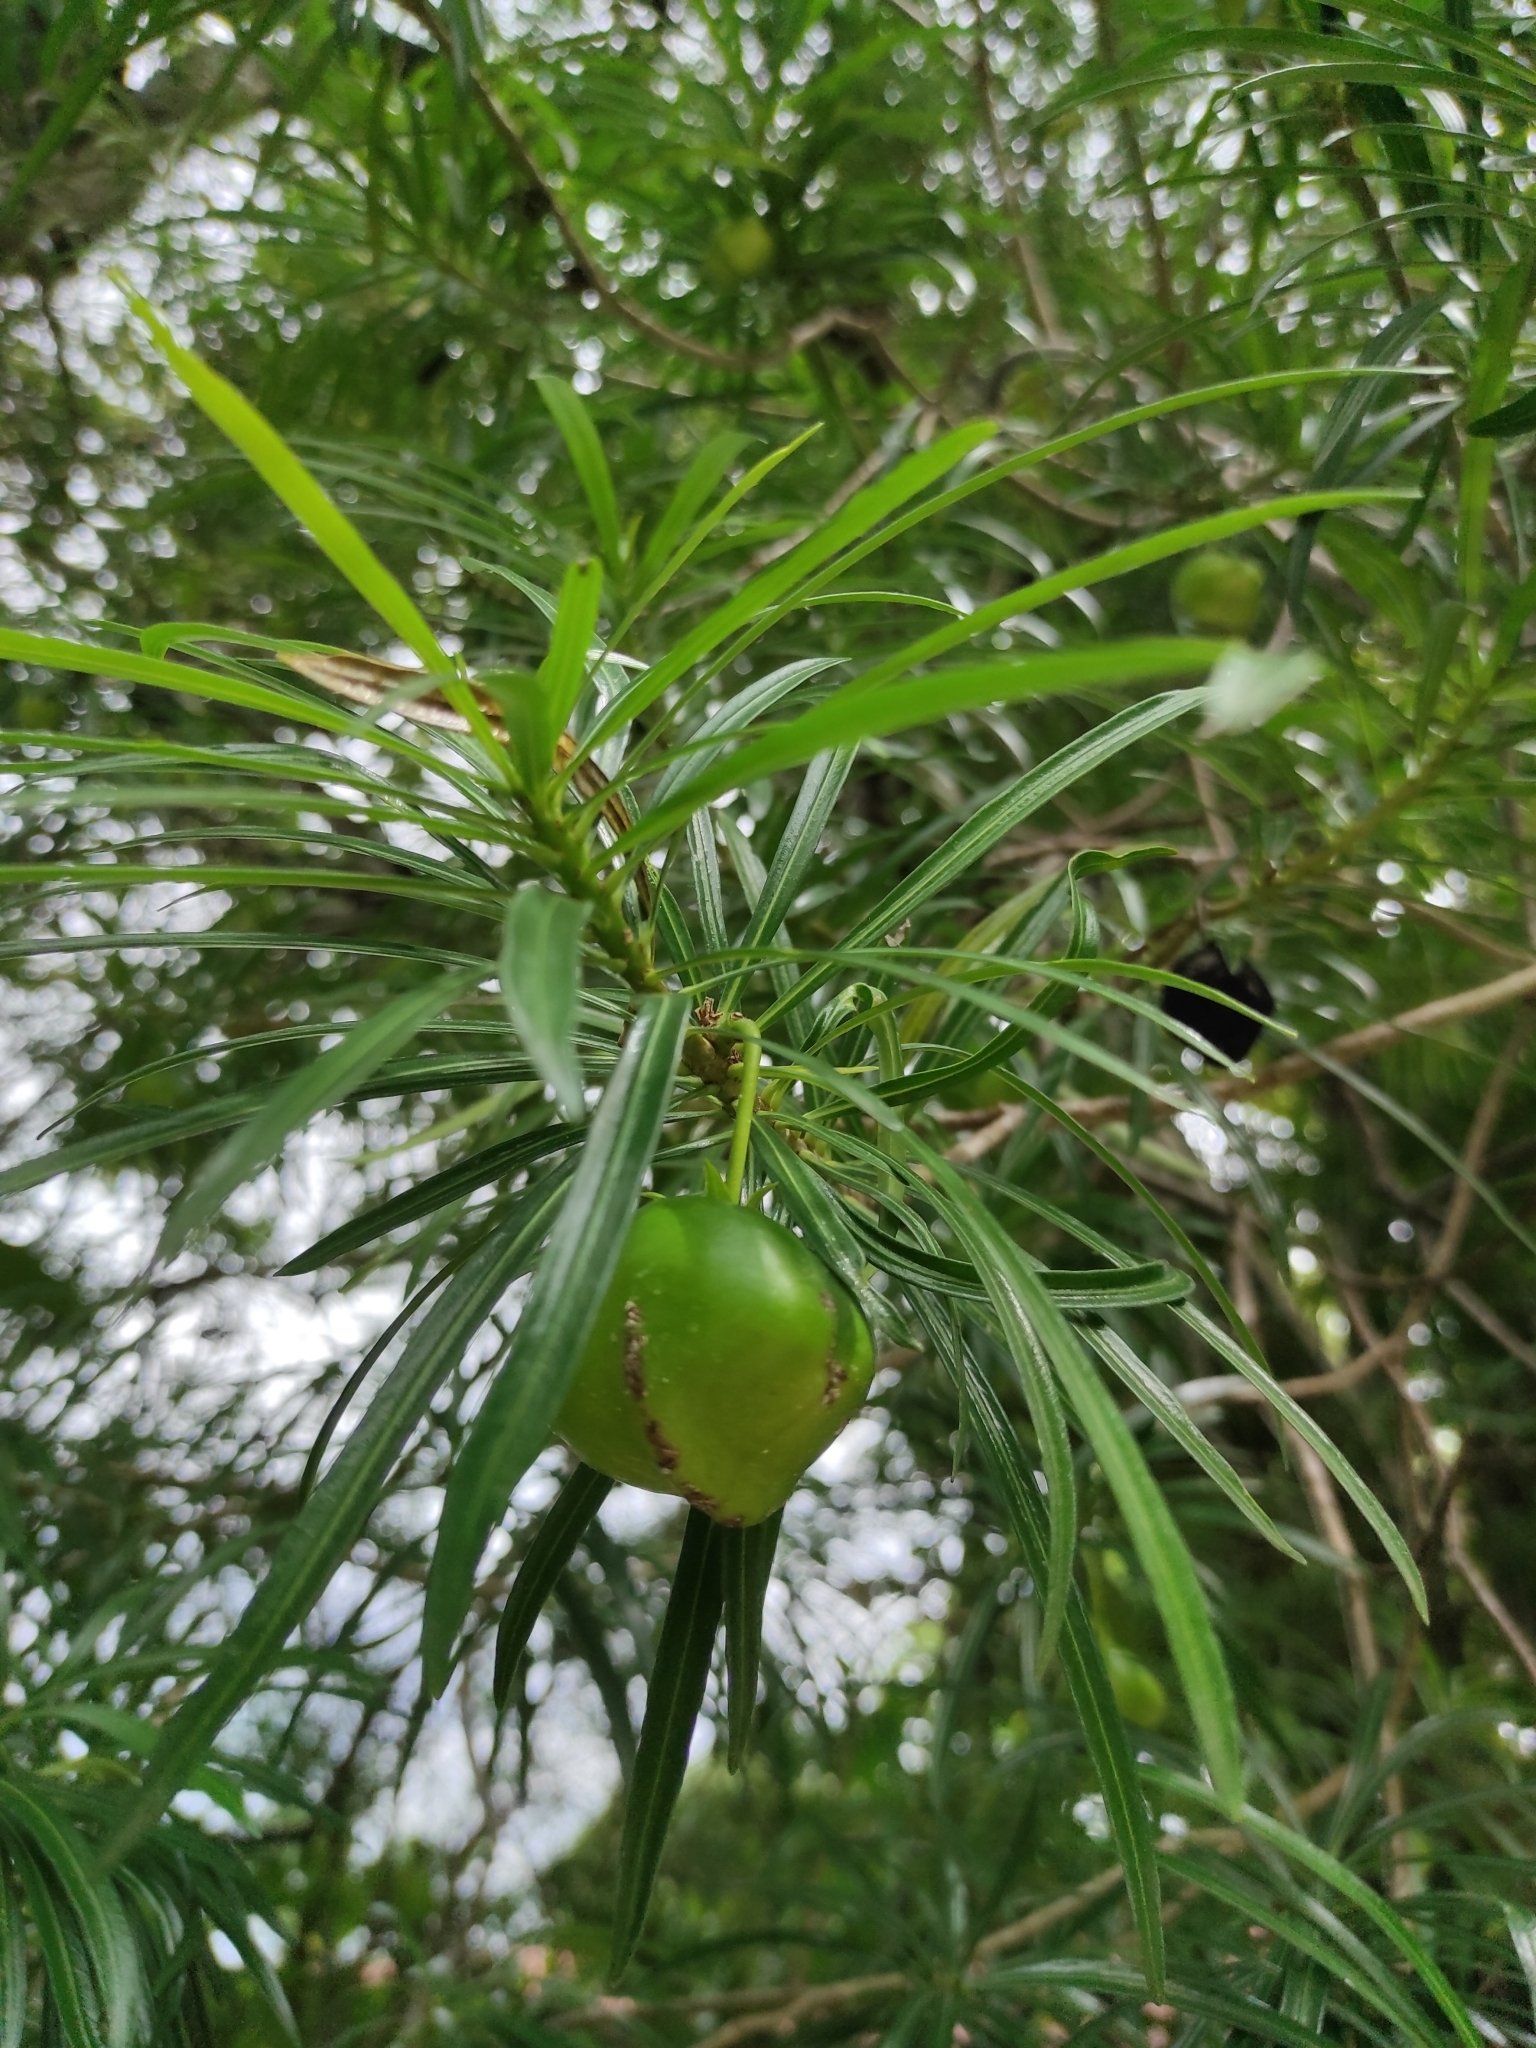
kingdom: Plantae
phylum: Tracheophyta
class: Magnoliopsida
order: Gentianales
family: Apocynaceae
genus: Cascabela
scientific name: Cascabela thevetia
